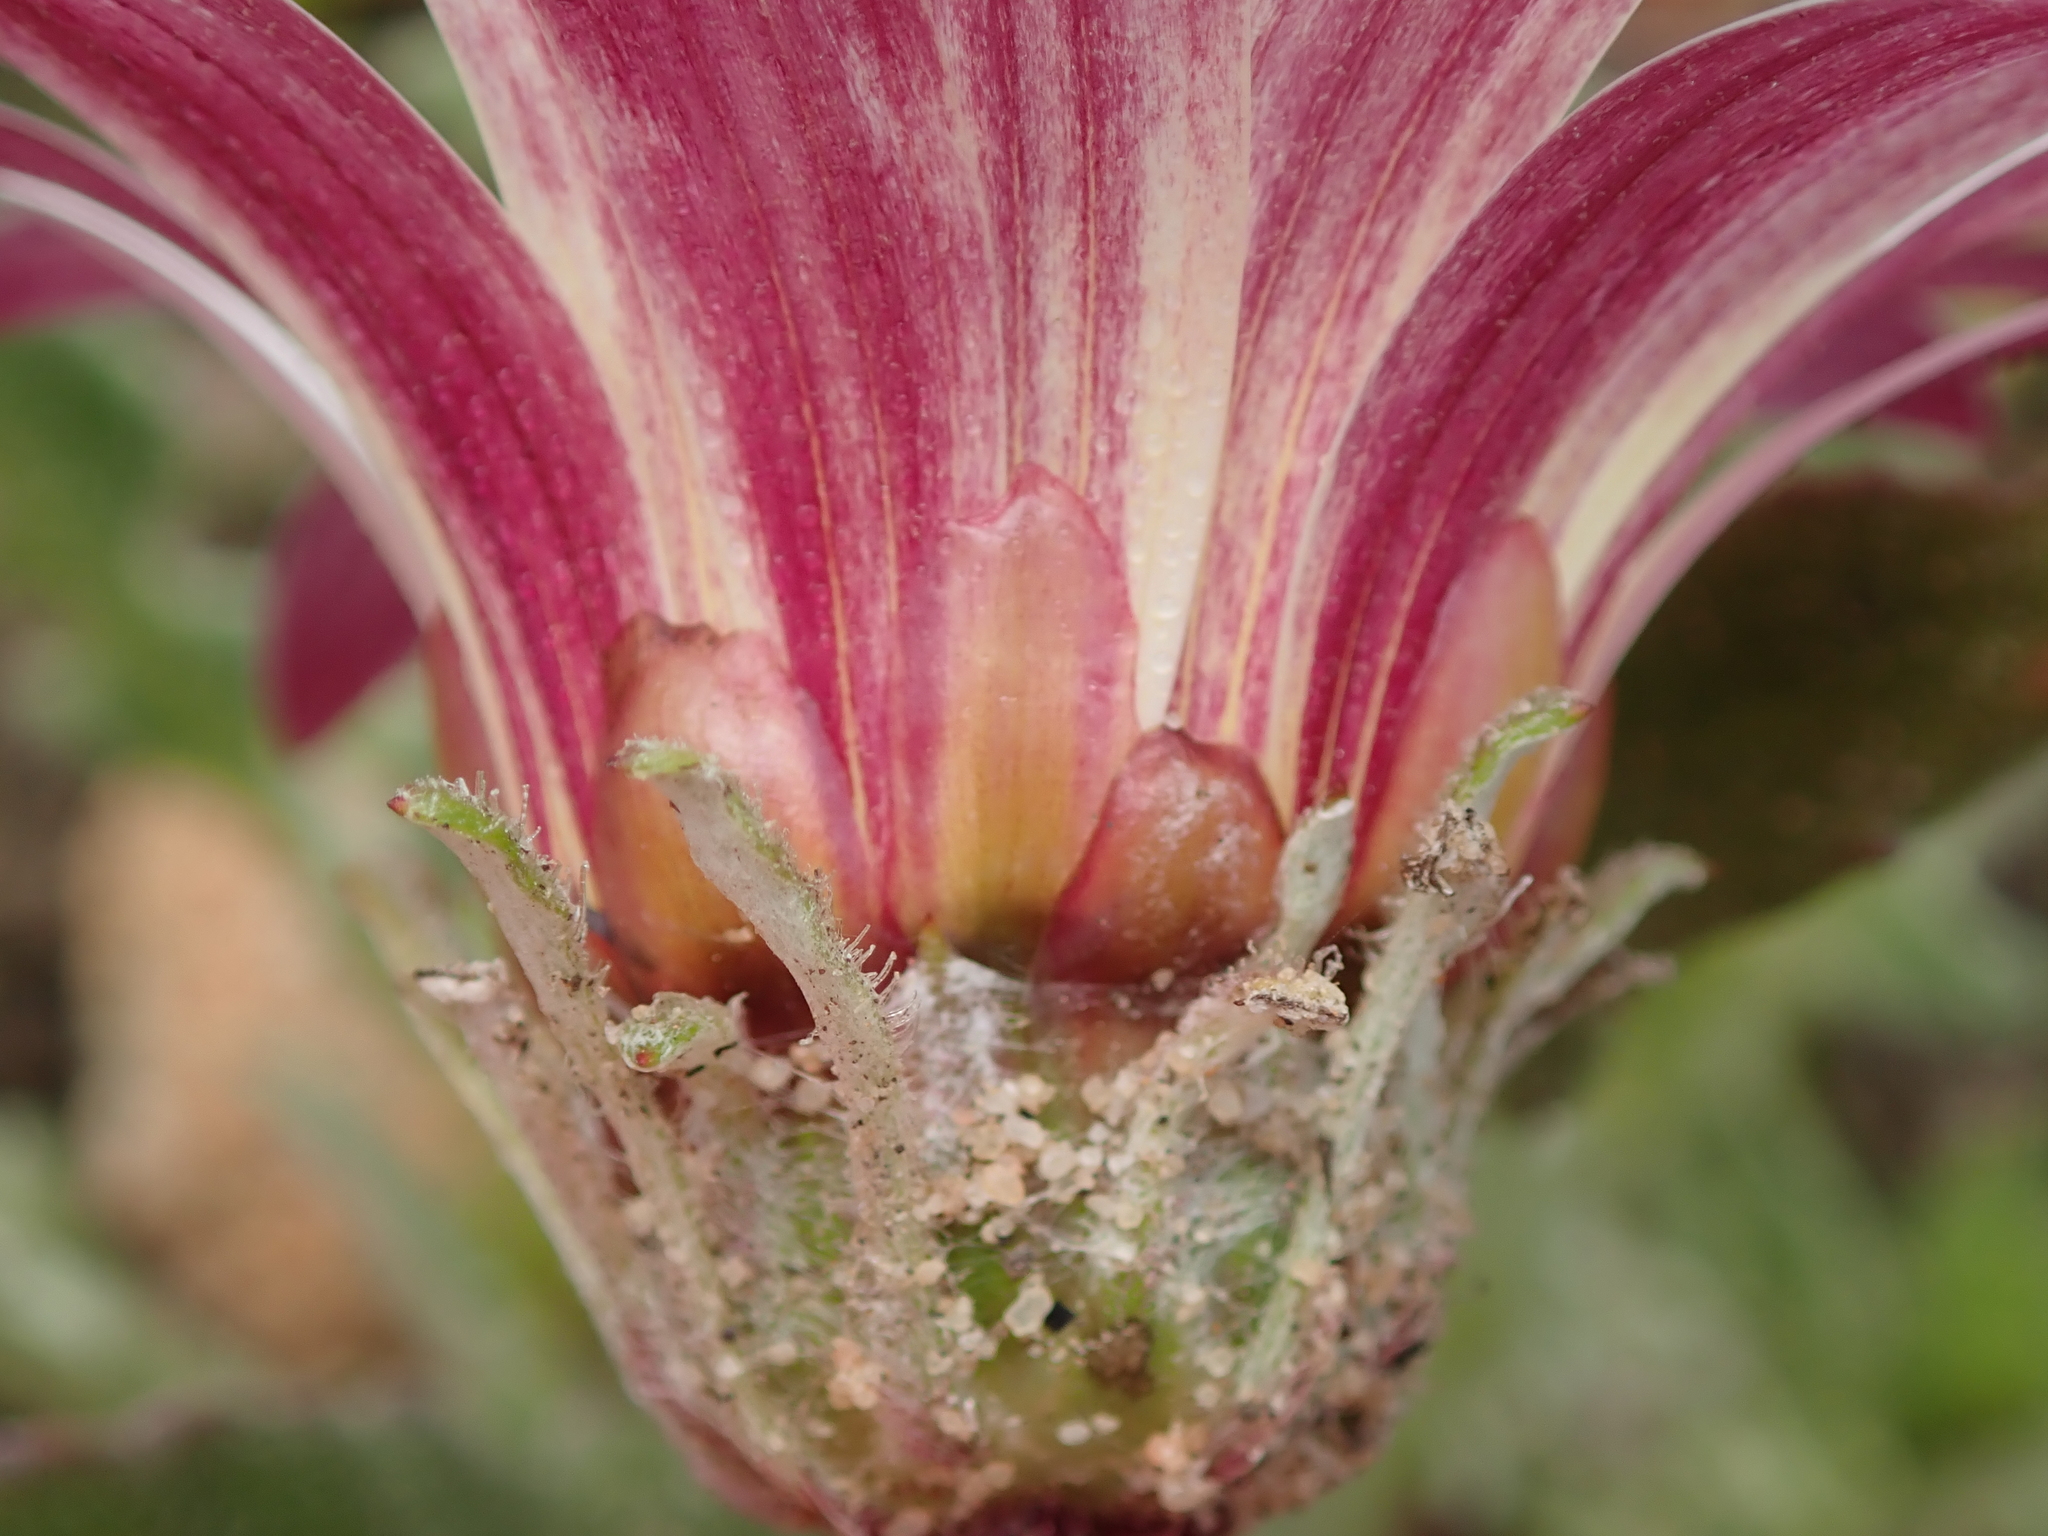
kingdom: Plantae
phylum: Tracheophyta
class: Magnoliopsida
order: Asterales
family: Asteraceae
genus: Arctotis
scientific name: Arctotis acaulis
